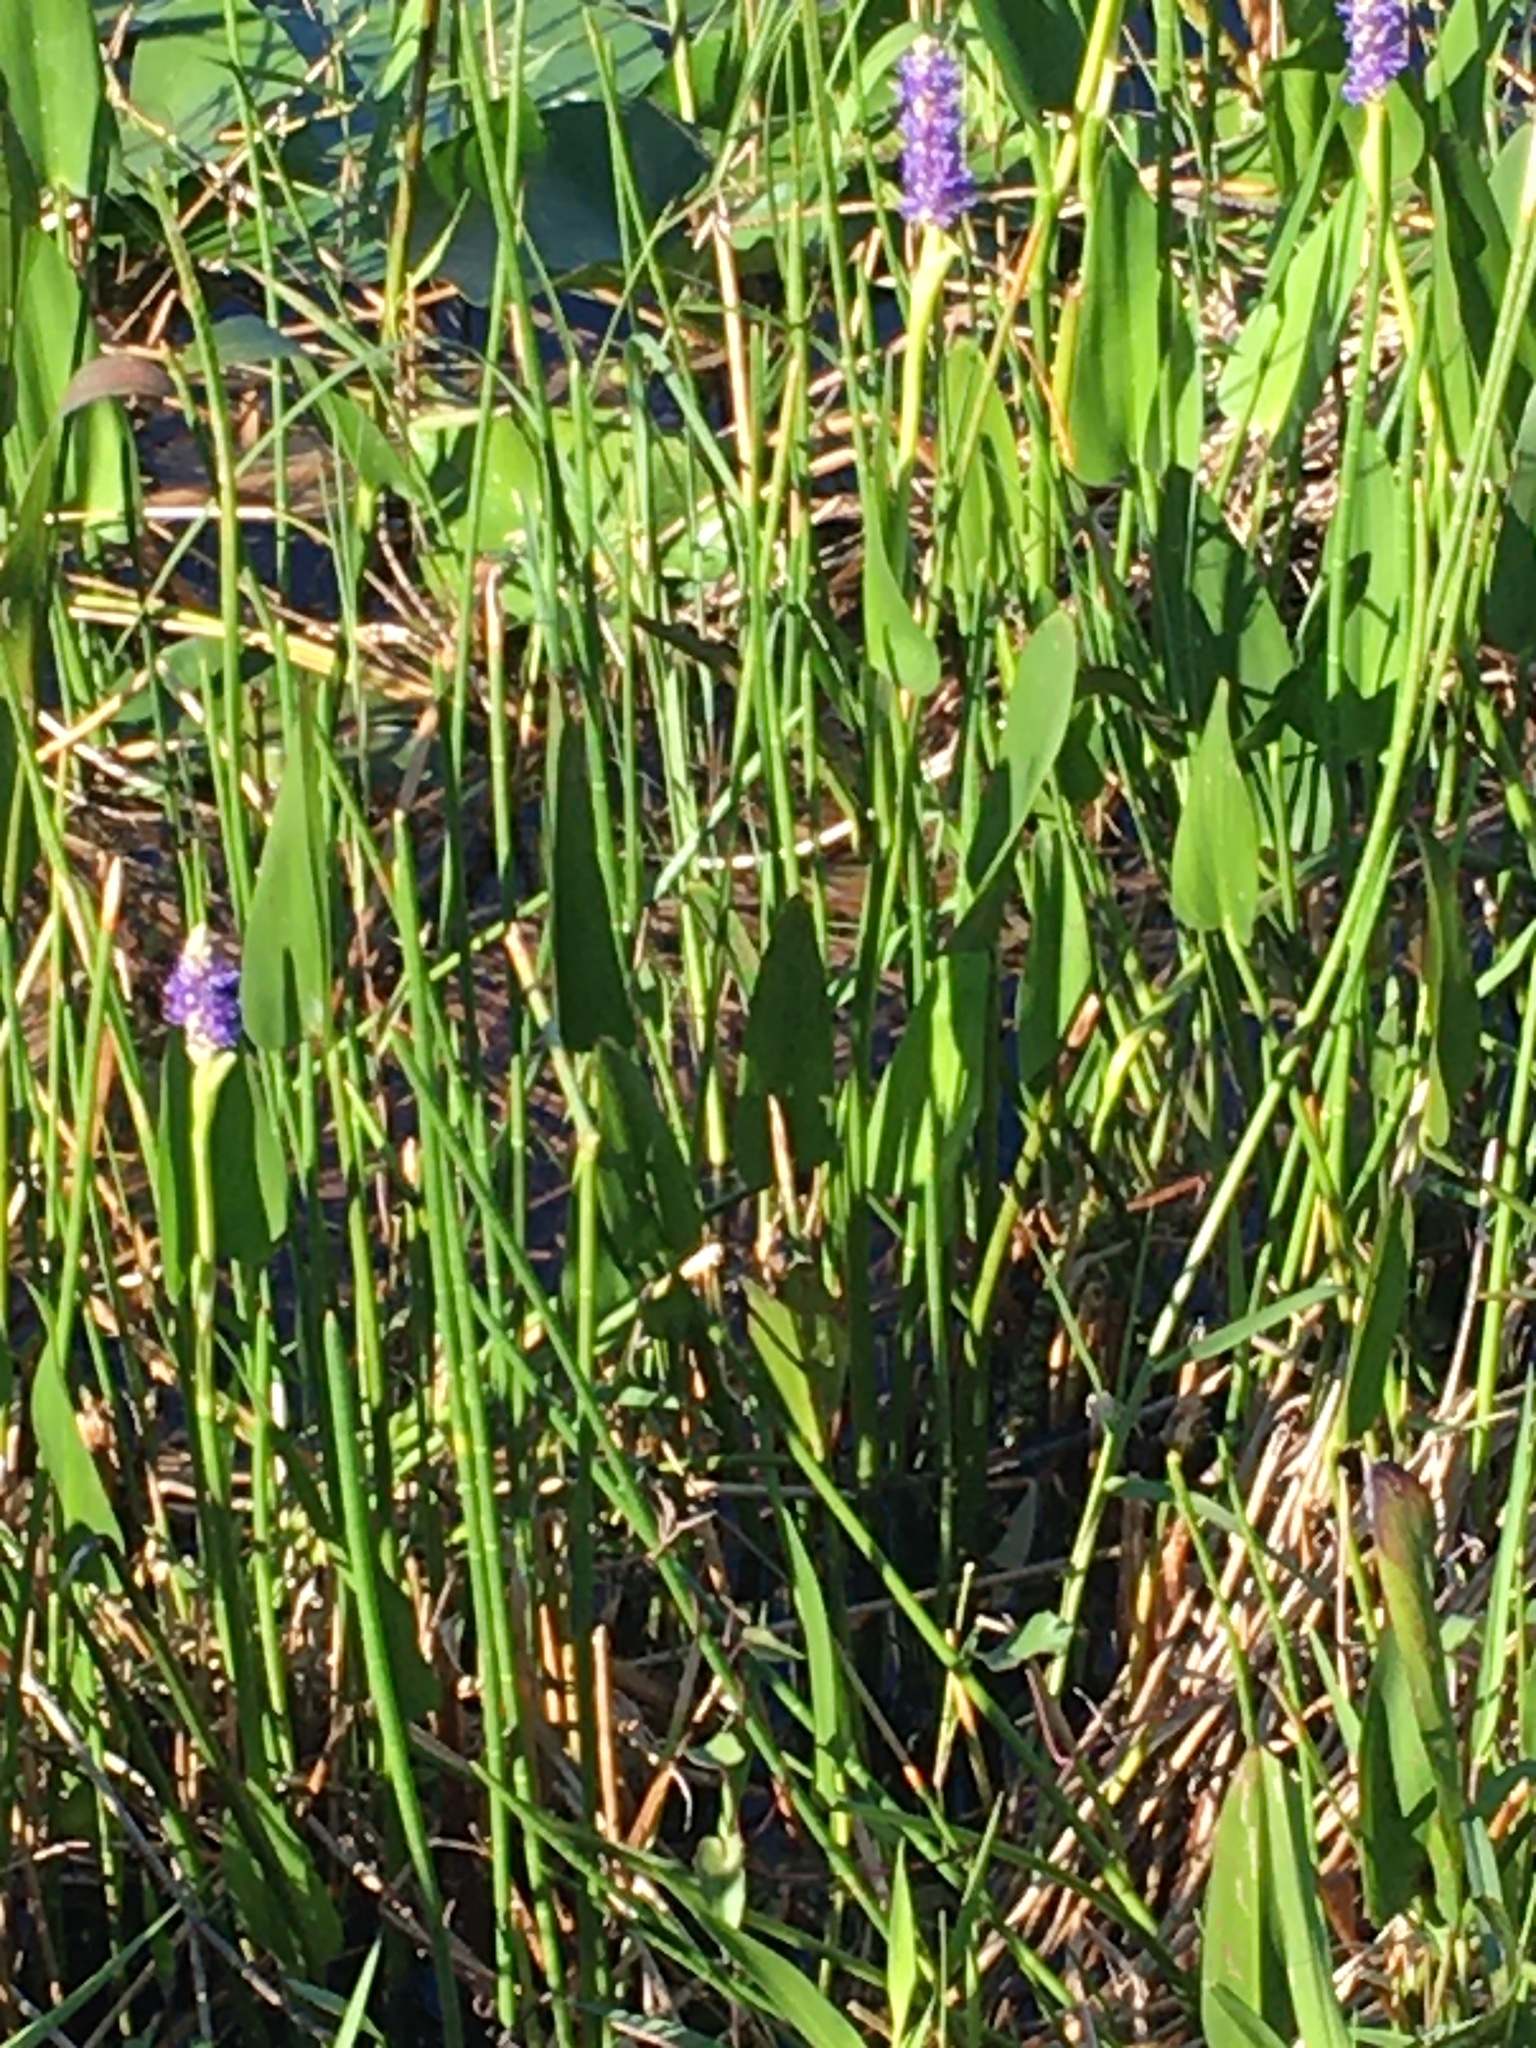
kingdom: Plantae
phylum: Tracheophyta
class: Liliopsida
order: Commelinales
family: Pontederiaceae
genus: Pontederia
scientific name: Pontederia cordata
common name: Pickerelweed
